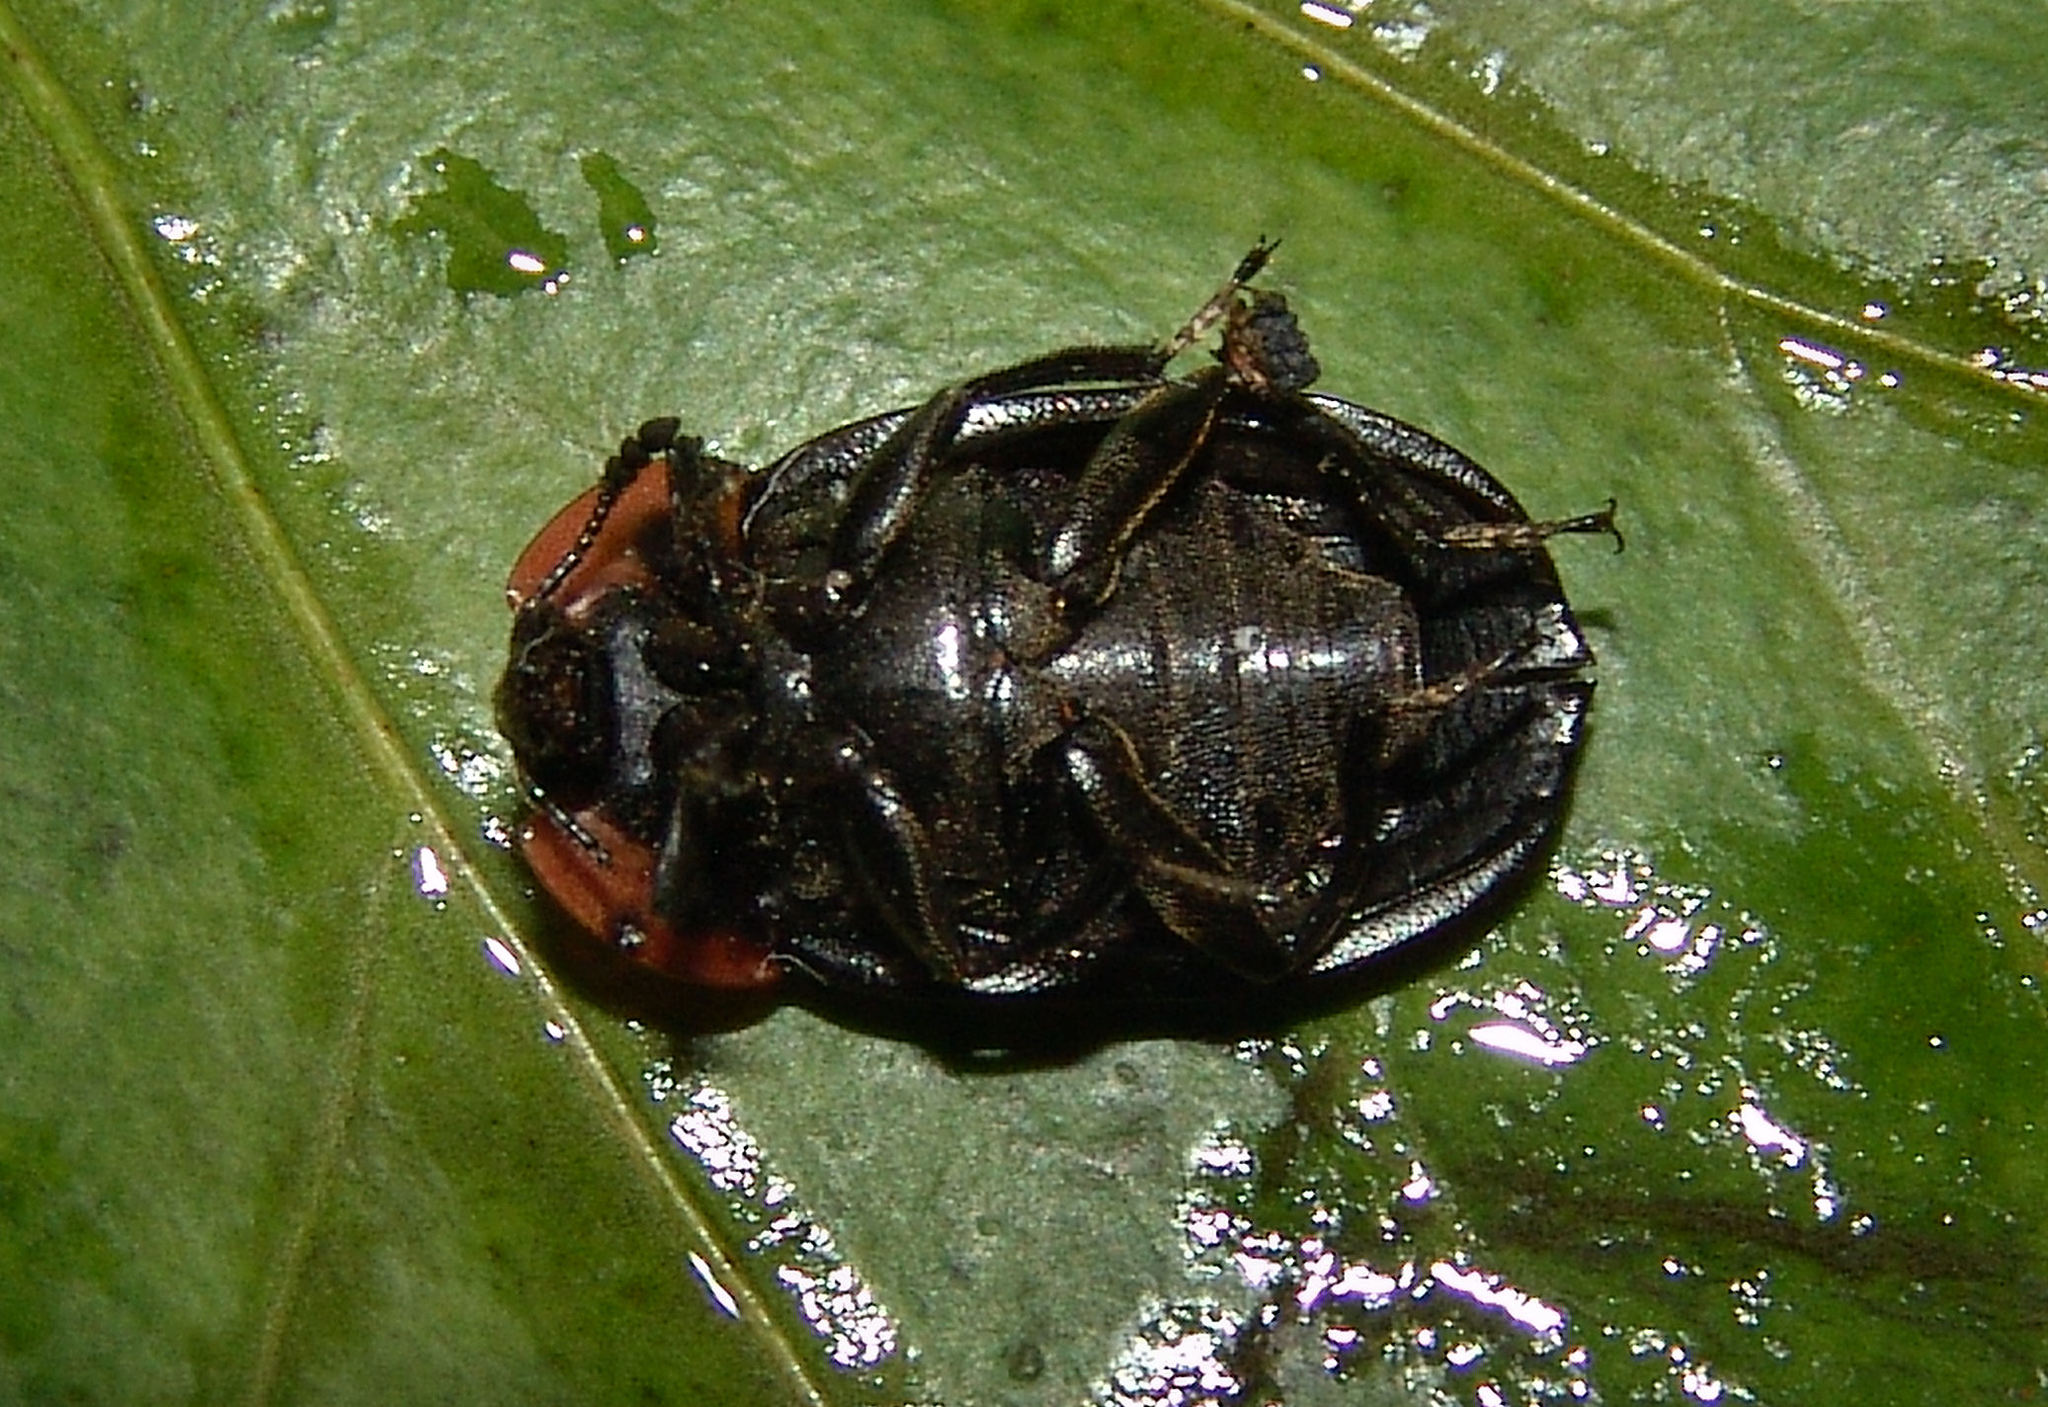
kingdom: Animalia
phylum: Arthropoda
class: Insecta
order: Coleoptera
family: Staphylinidae
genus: Oiceoptoma
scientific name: Oiceoptoma noveboracense
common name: Margined carrion beetle
